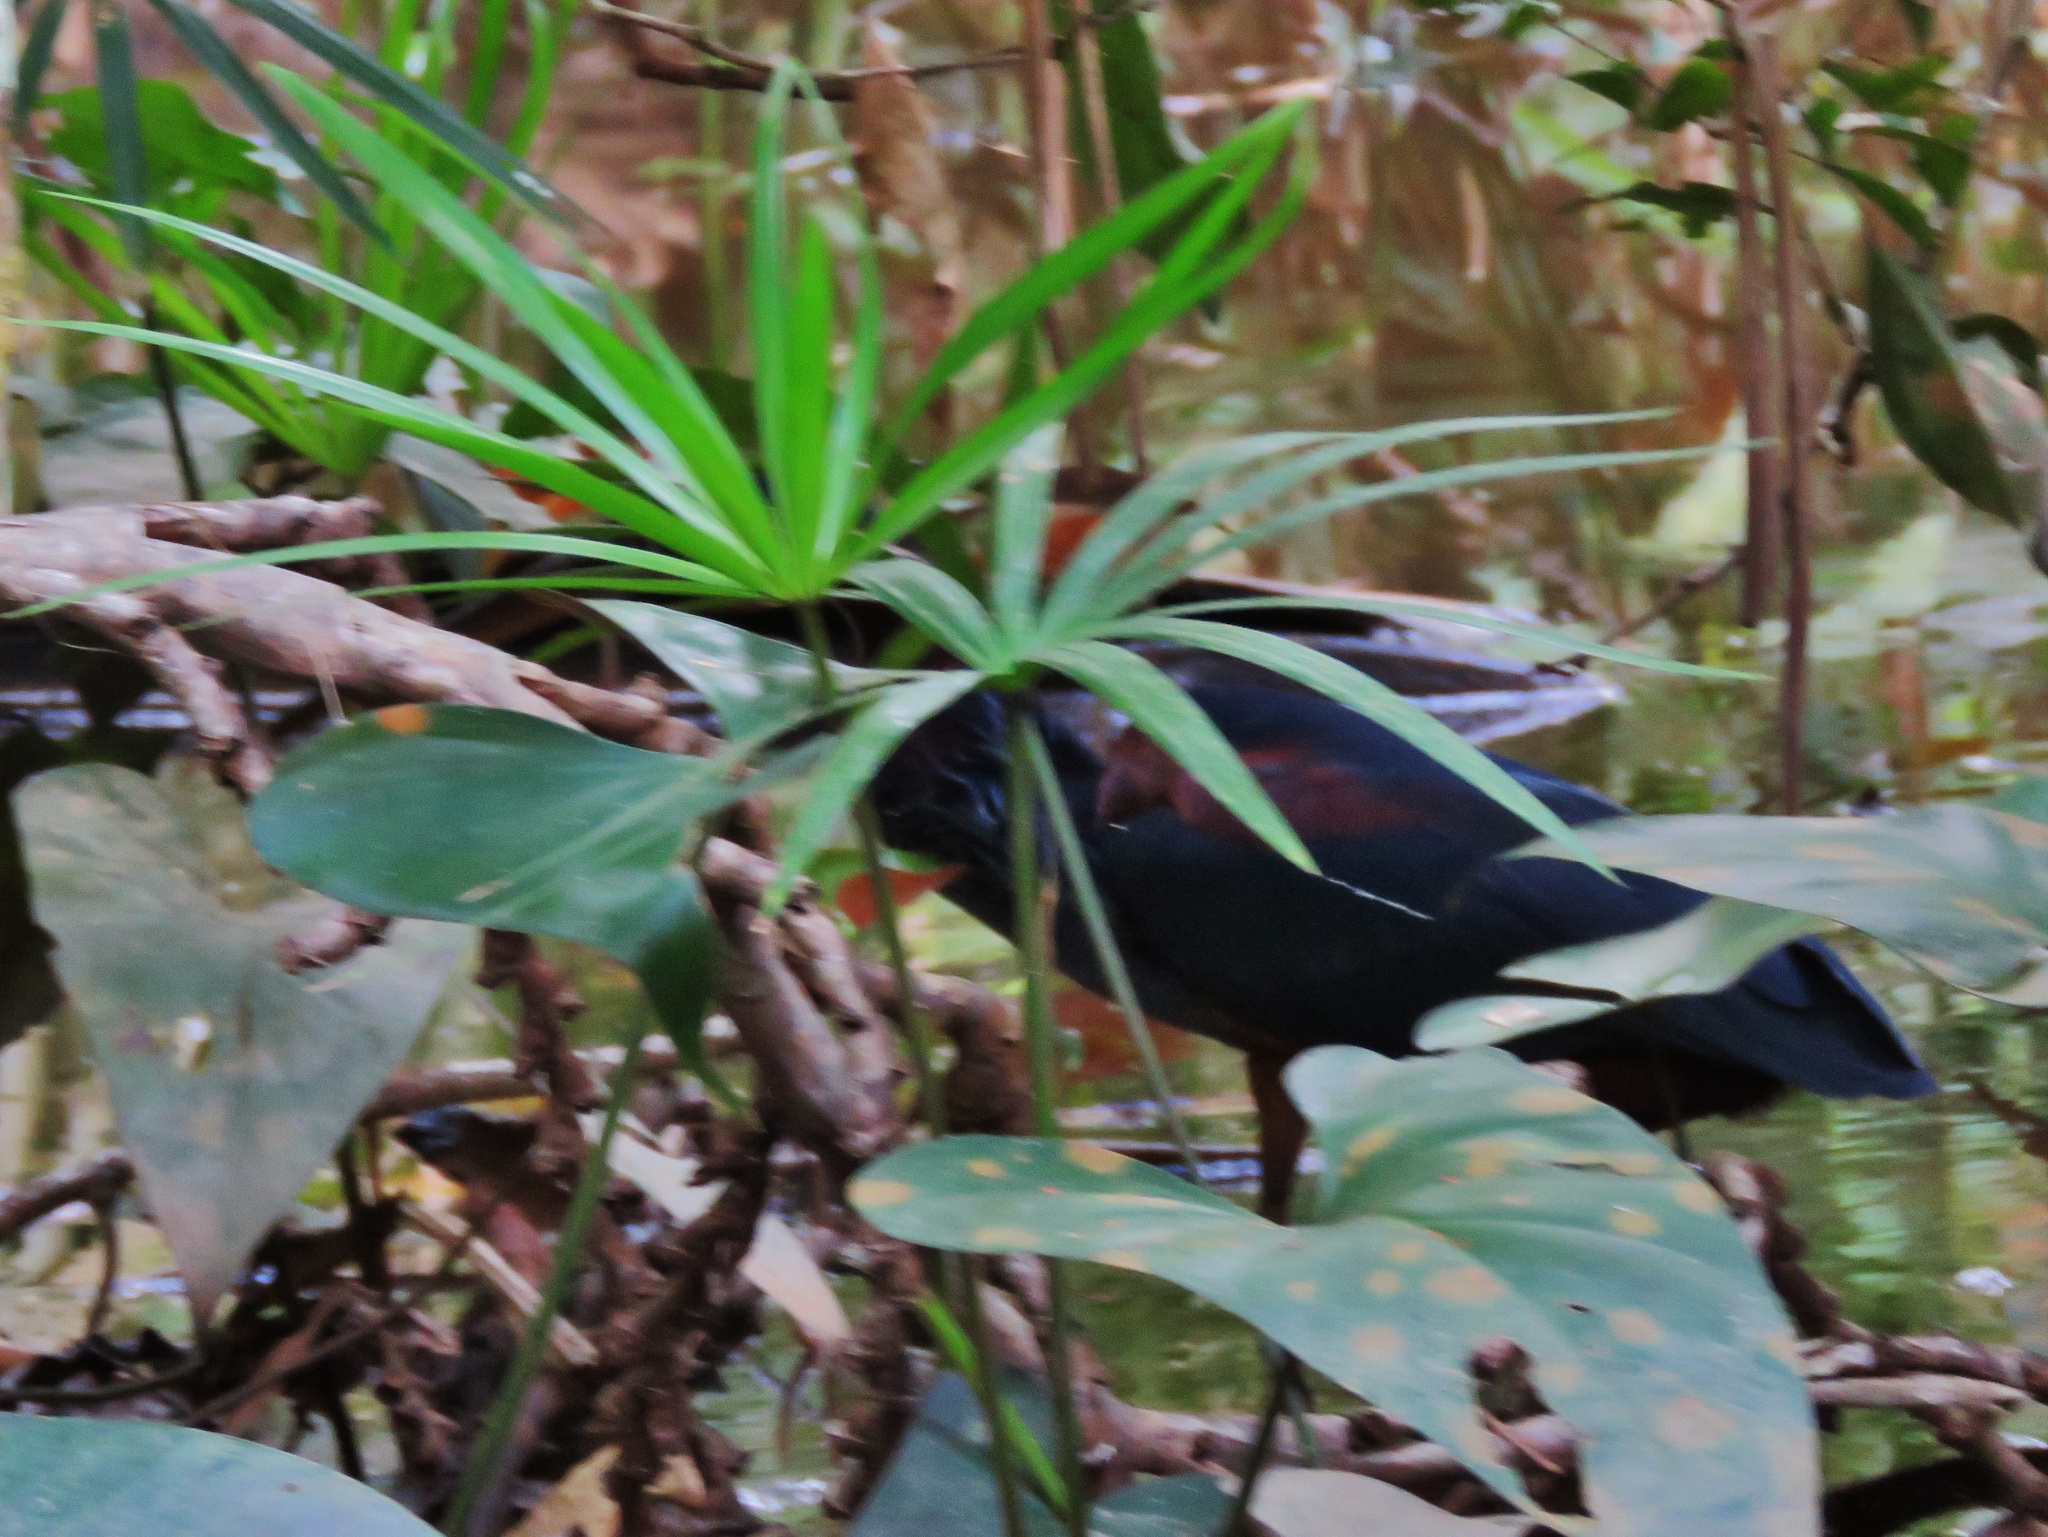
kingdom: Animalia
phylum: Chordata
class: Aves
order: Pelecaniformes
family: Ardeidae
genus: Agamia
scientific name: Agamia agami
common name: Agami heron
